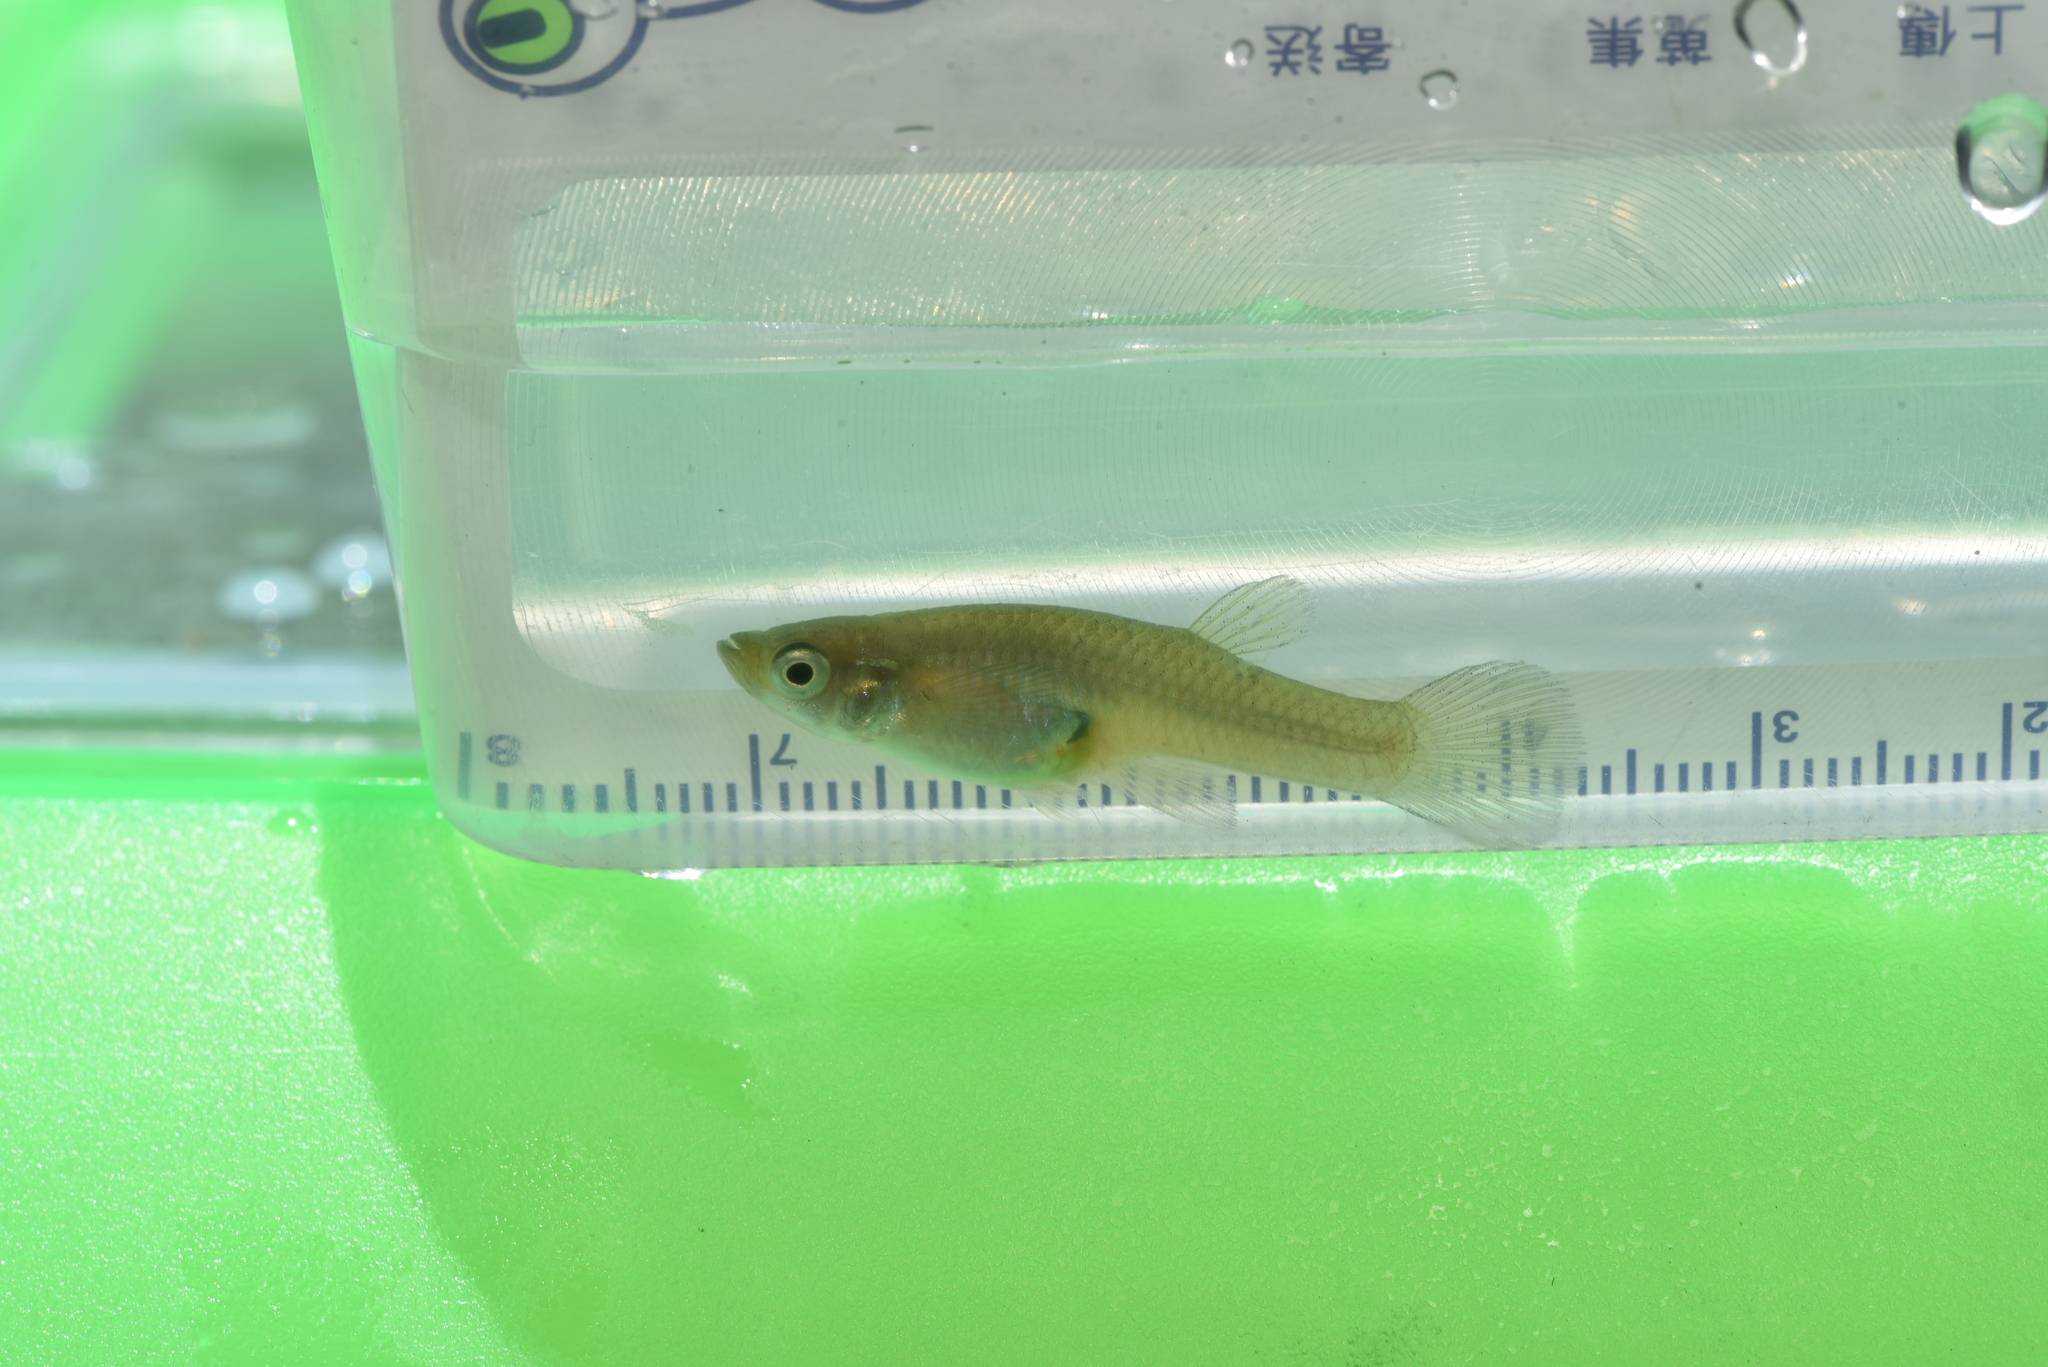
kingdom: Animalia
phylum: Chordata
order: Cyprinodontiformes
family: Poeciliidae
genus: Gambusia
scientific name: Gambusia affinis
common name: Mosquitofish
